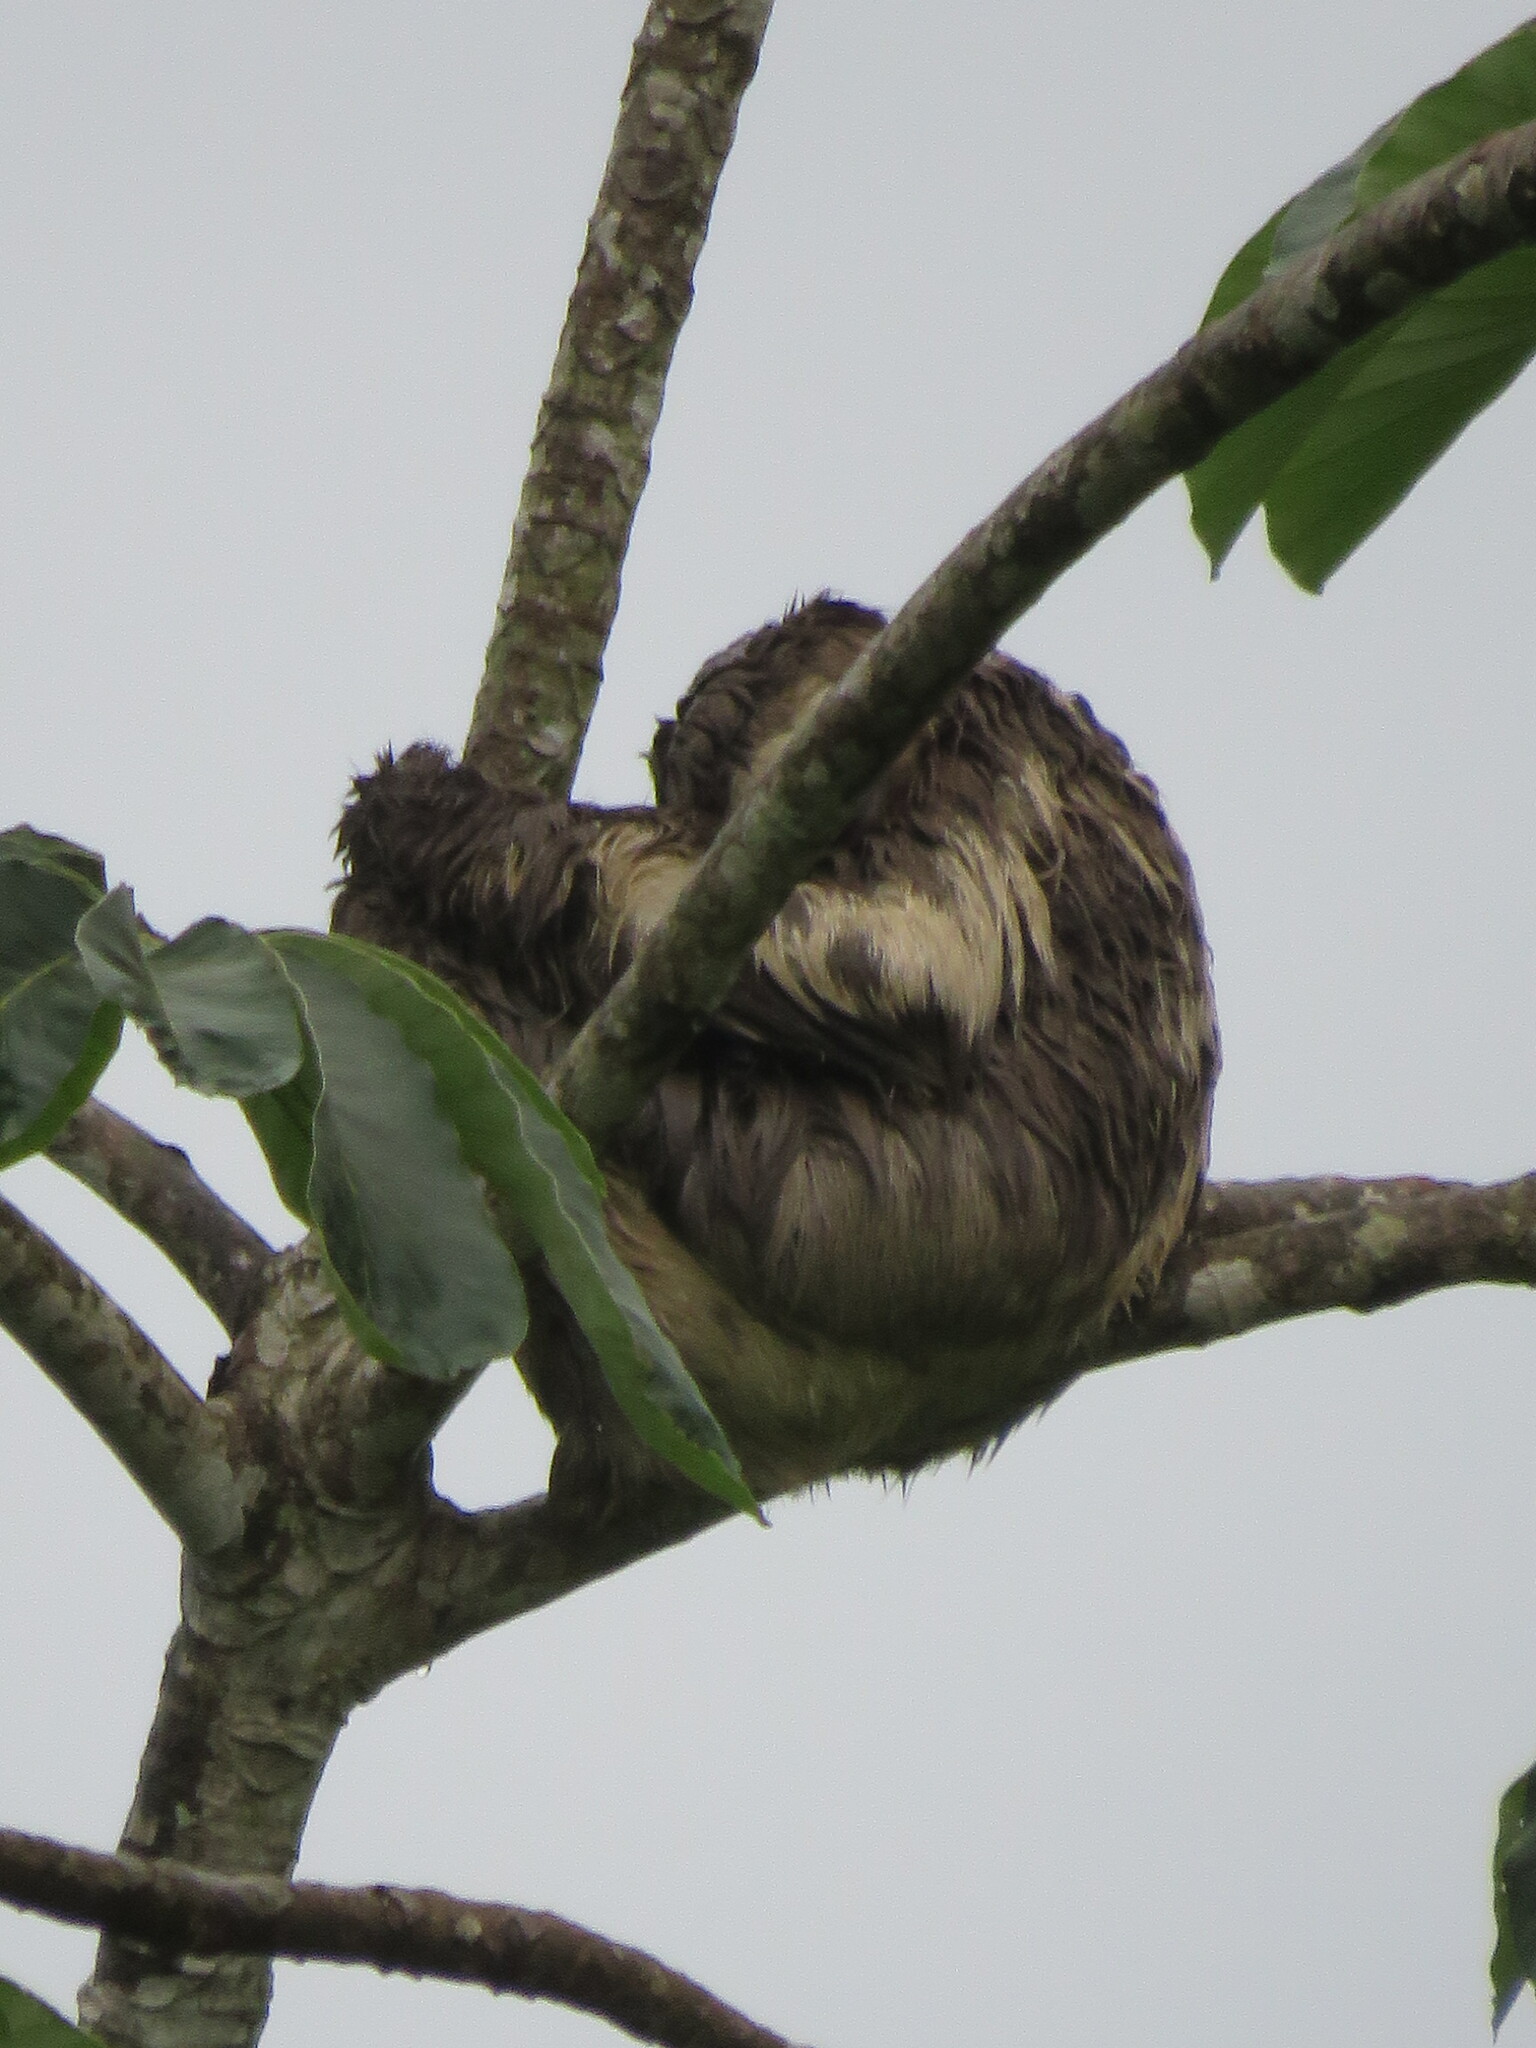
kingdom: Animalia
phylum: Chordata
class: Mammalia
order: Pilosa
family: Bradypodidae
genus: Bradypus
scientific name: Bradypus variegatus
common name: Brown-throated three-toed sloth
